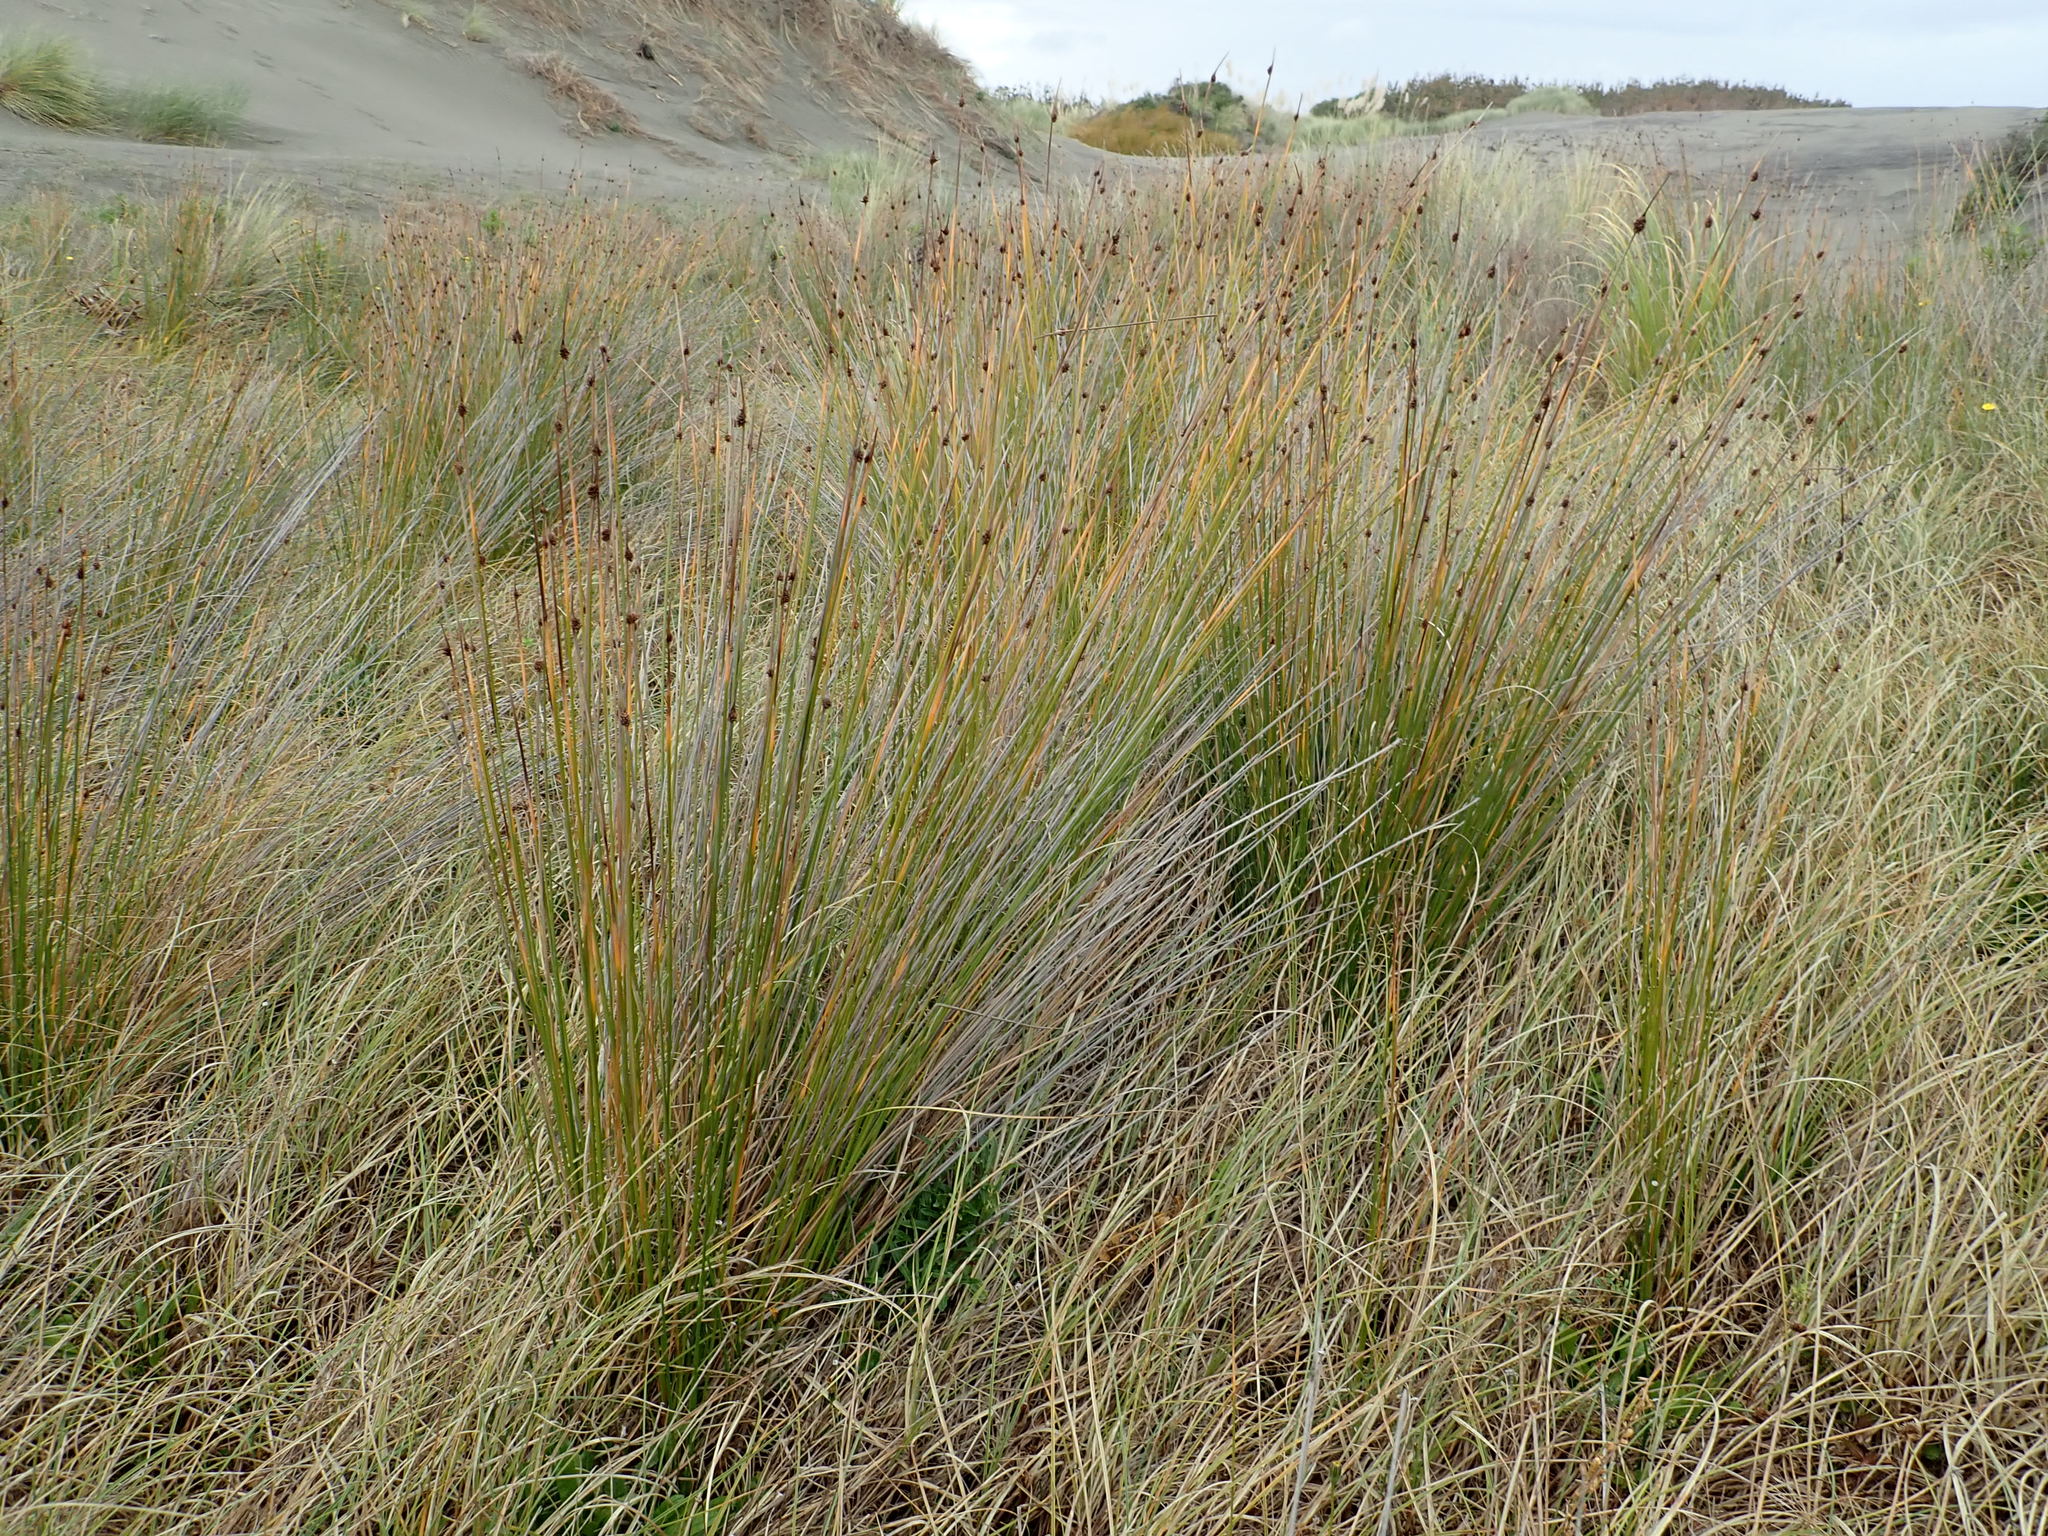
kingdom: Plantae
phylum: Tracheophyta
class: Liliopsida
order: Poales
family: Cyperaceae
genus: Ficinia
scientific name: Ficinia nodosa
